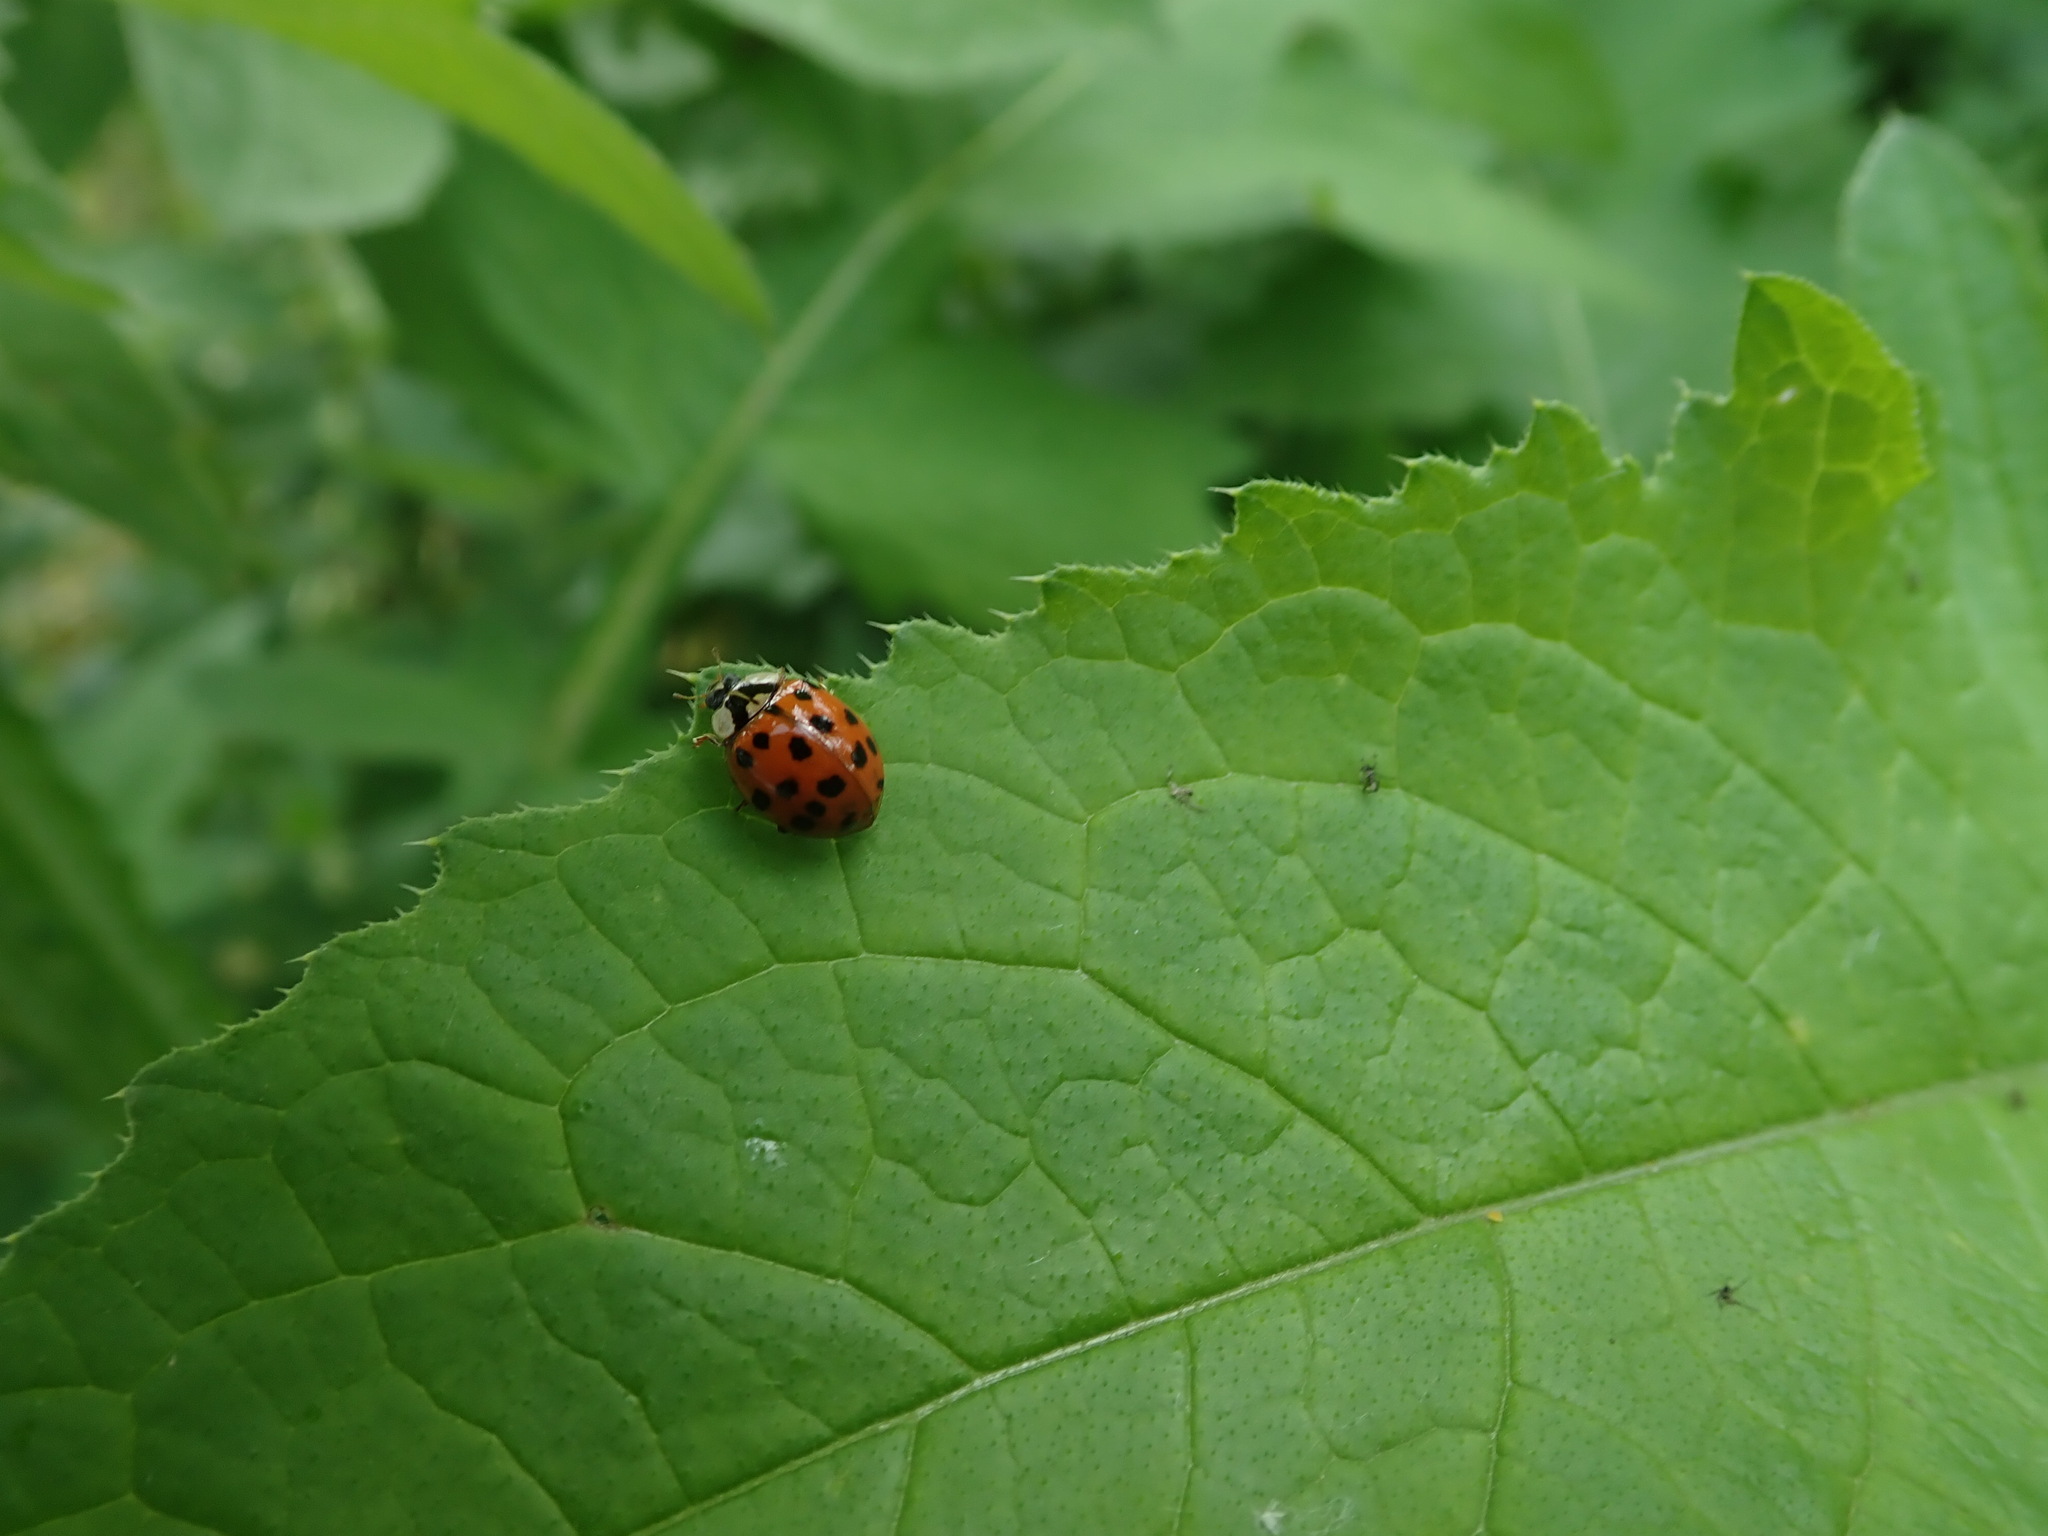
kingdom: Animalia
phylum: Arthropoda
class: Insecta
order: Coleoptera
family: Coccinellidae
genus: Harmonia
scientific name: Harmonia axyridis
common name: Harlequin ladybird
